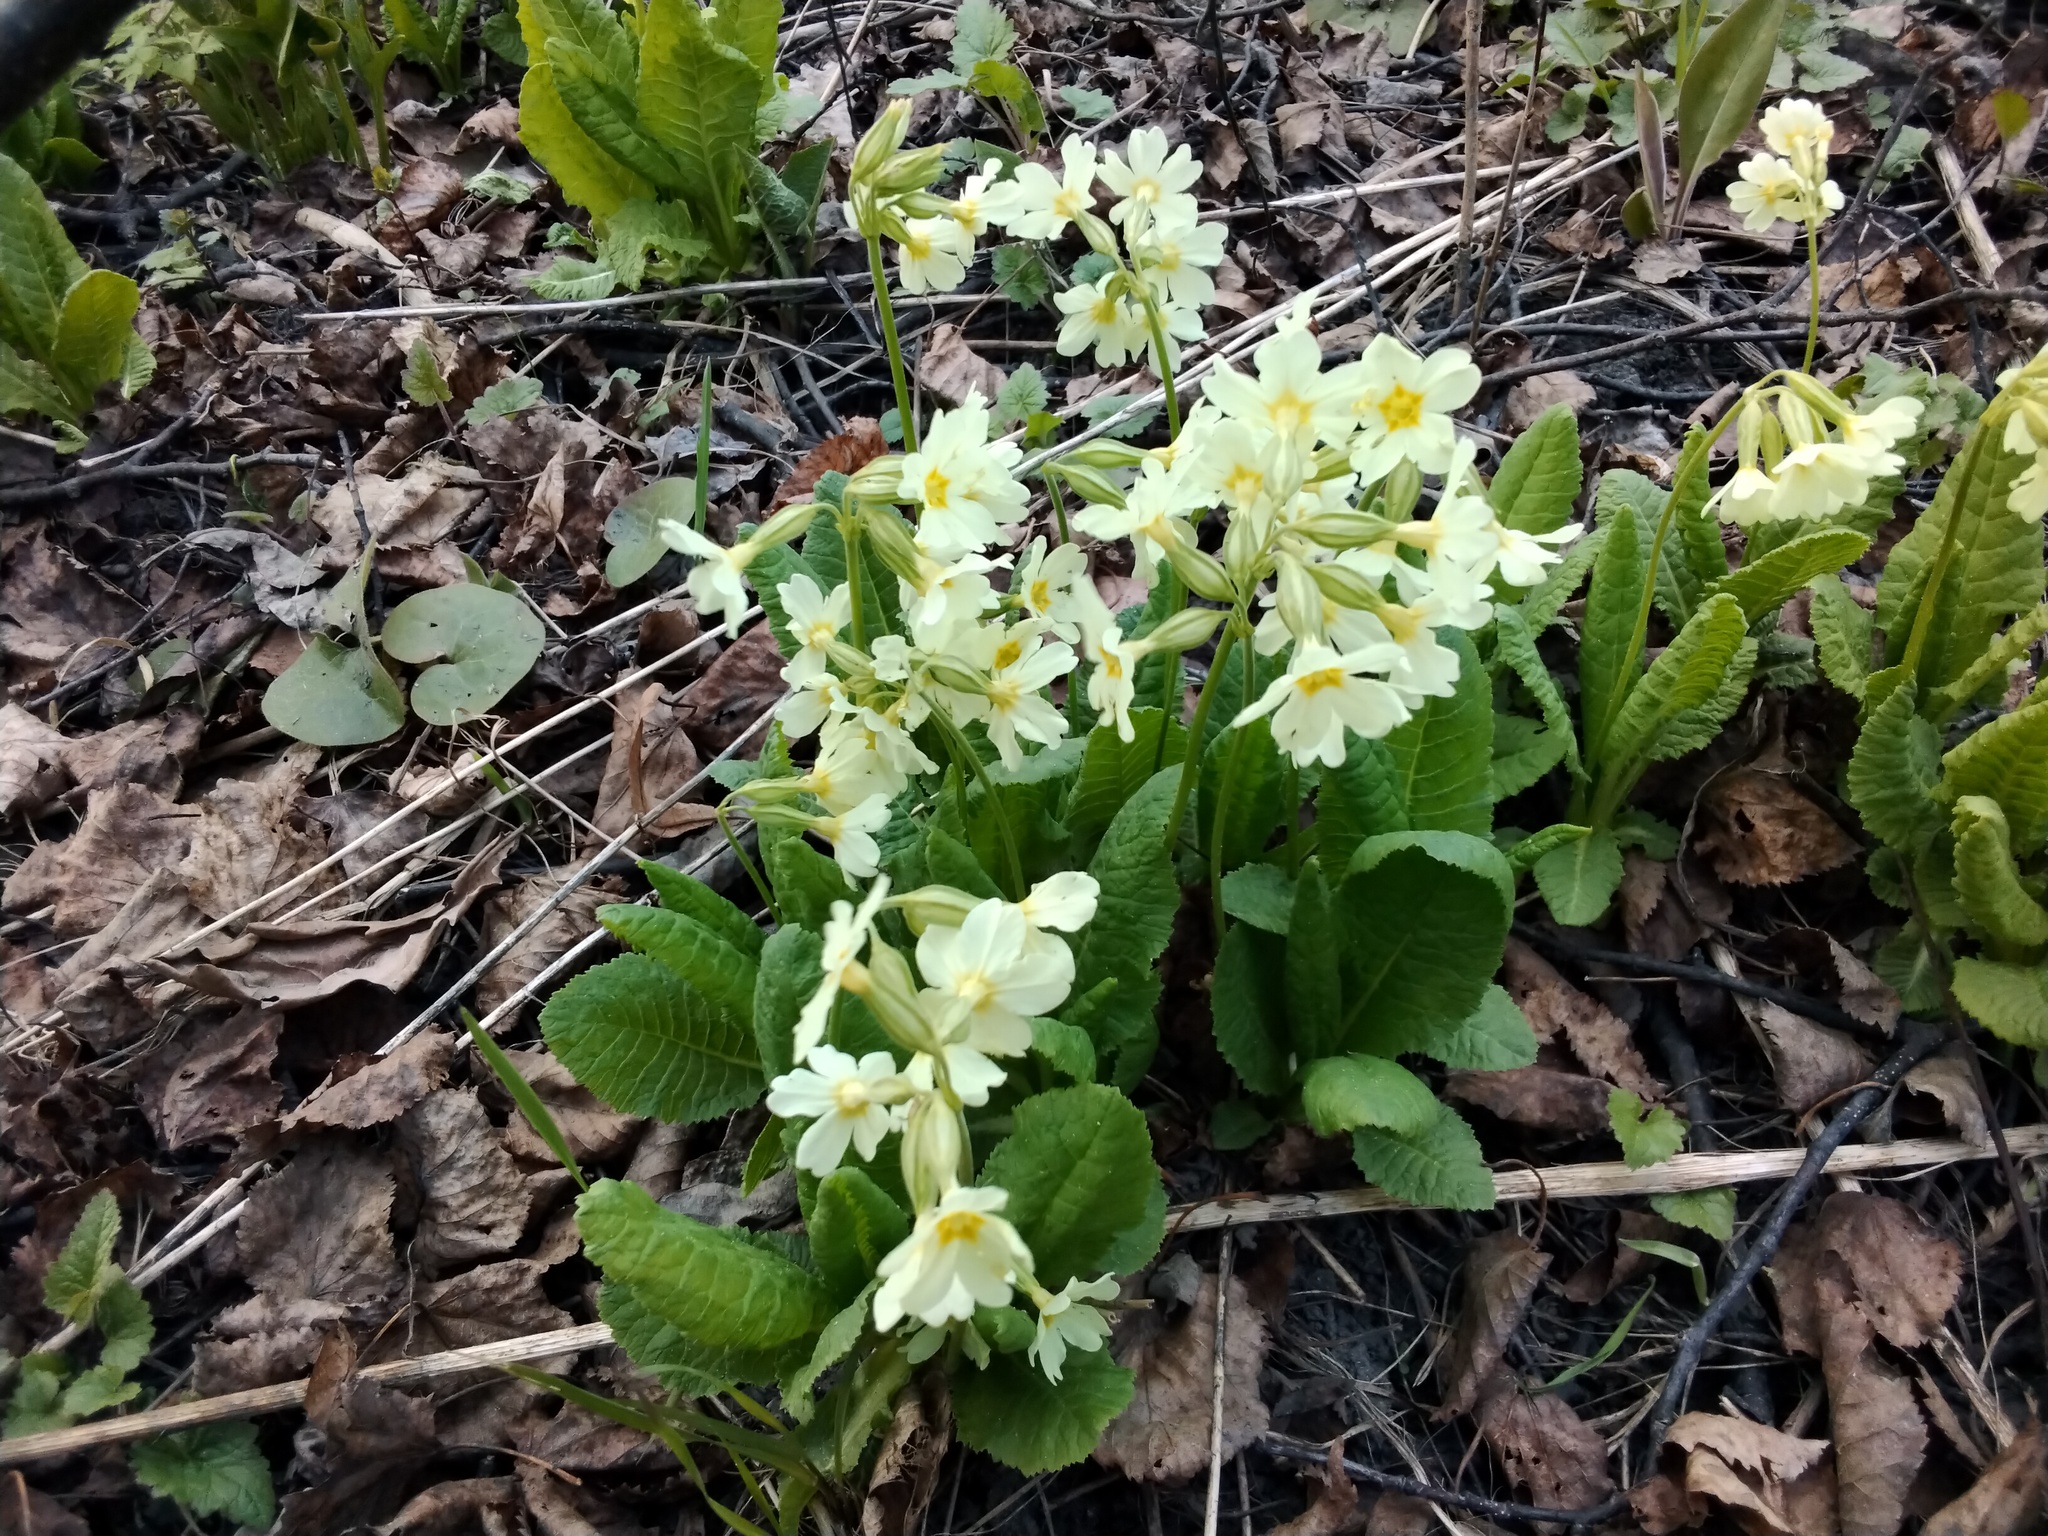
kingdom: Plantae
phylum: Tracheophyta
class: Magnoliopsida
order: Ericales
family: Primulaceae
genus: Primula
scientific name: Primula elatior
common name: Oxlip
